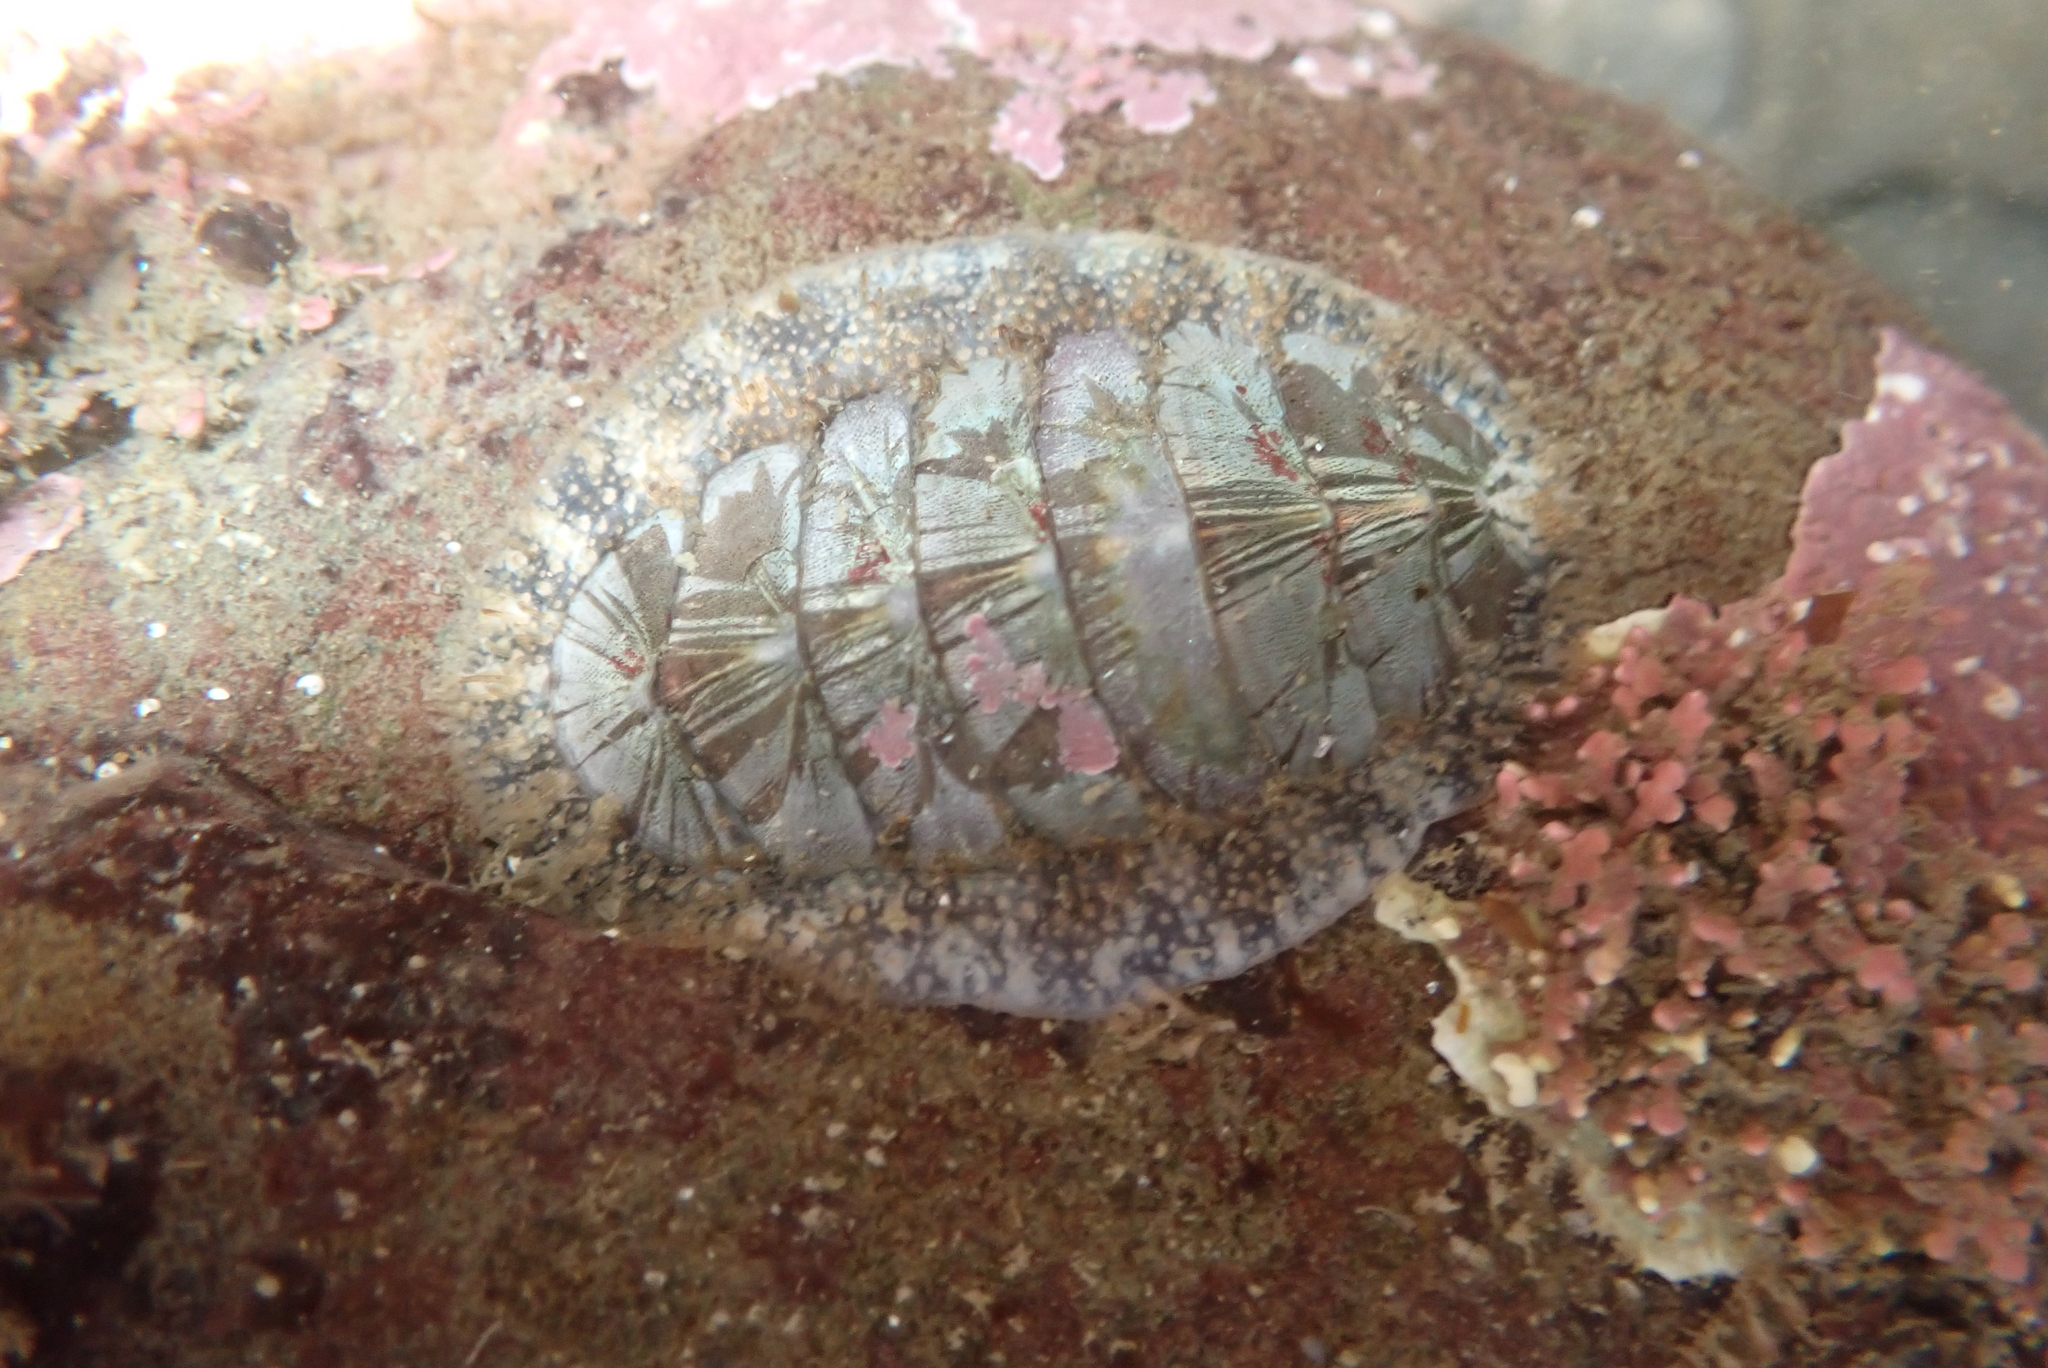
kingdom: Animalia
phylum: Mollusca
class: Polyplacophora
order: Chitonida
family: Mopaliidae
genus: Mopalia
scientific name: Mopalia lignosa
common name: Woody chiton
